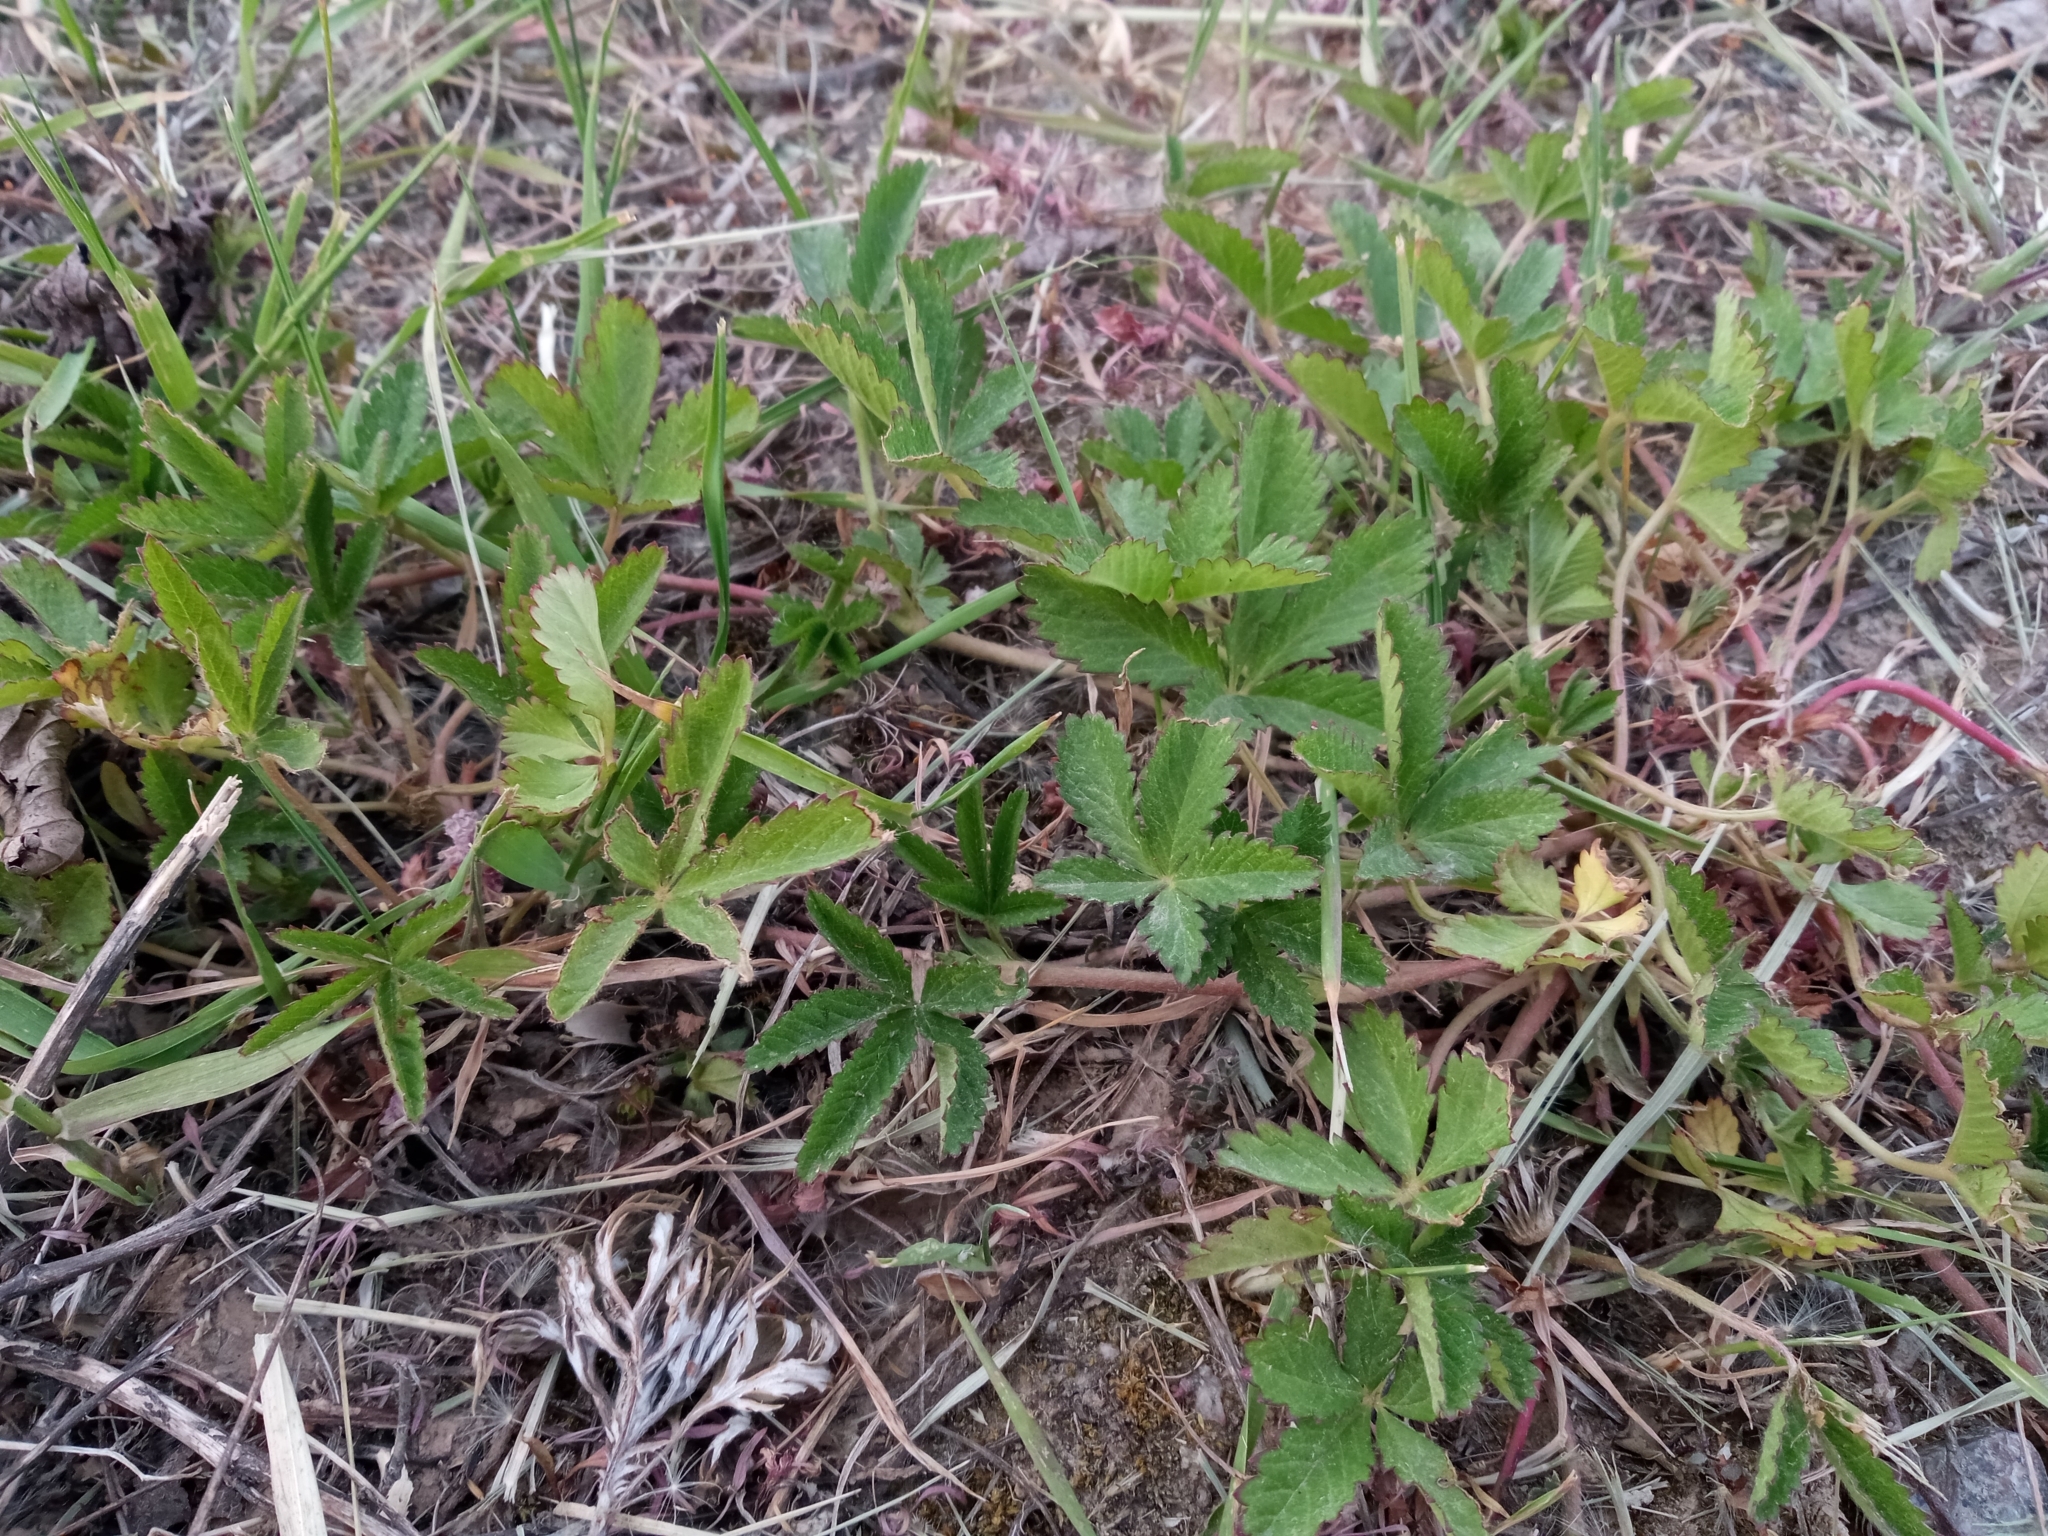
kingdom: Plantae
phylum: Tracheophyta
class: Magnoliopsida
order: Rosales
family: Rosaceae
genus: Potentilla
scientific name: Potentilla reptans
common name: Creeping cinquefoil
